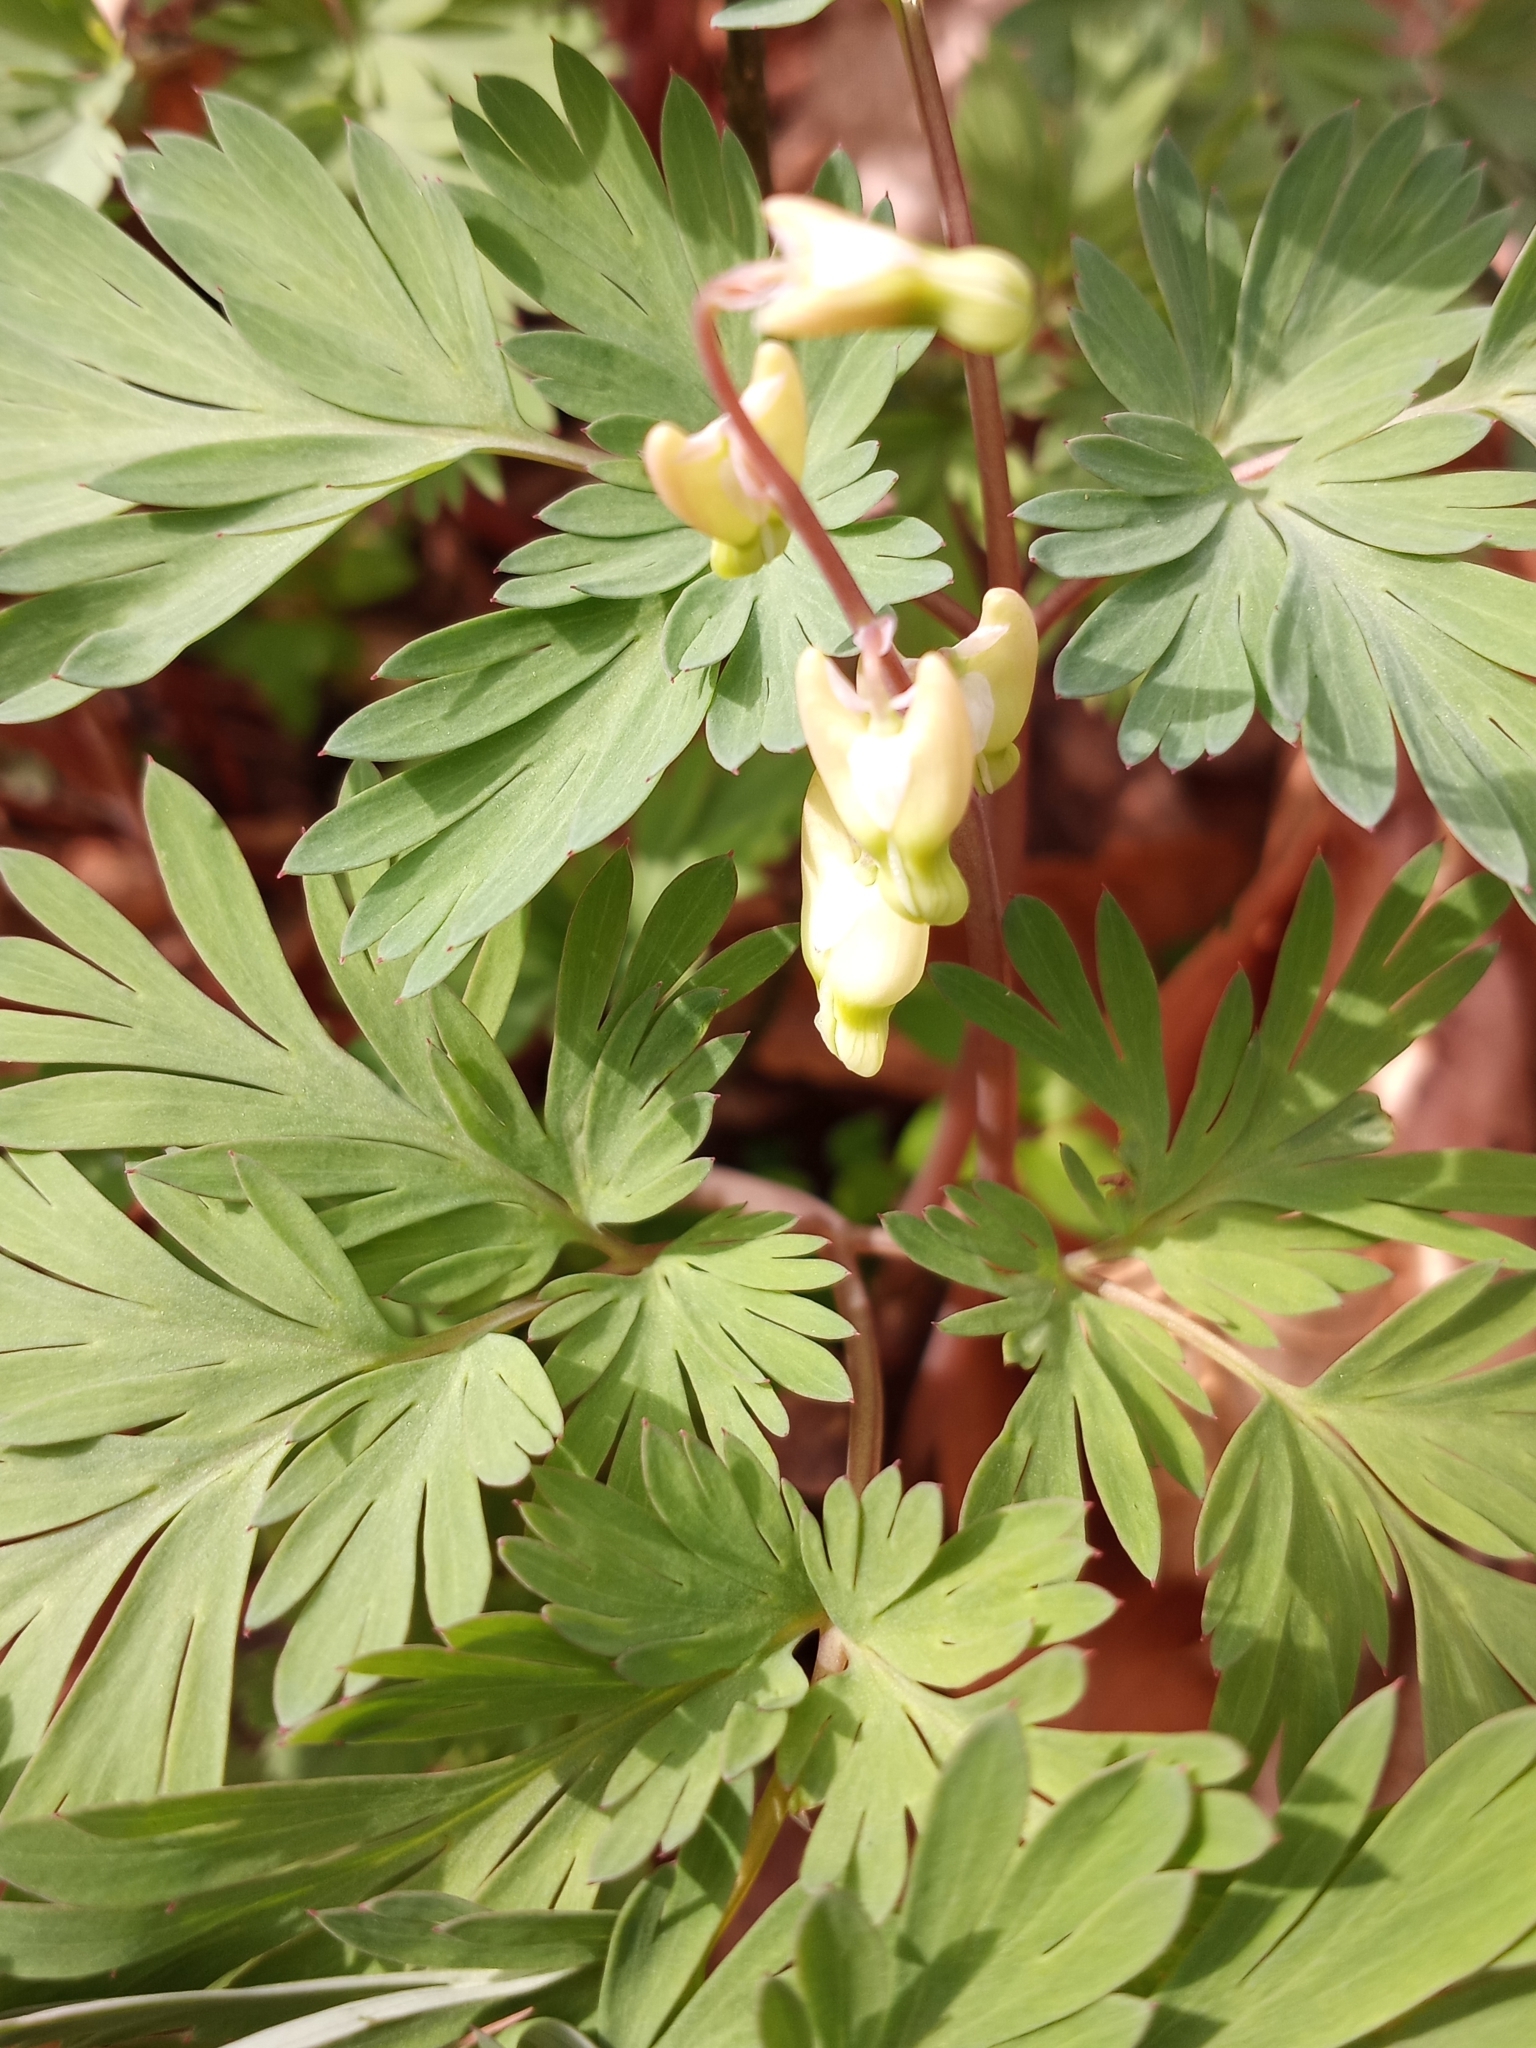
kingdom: Plantae
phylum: Tracheophyta
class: Magnoliopsida
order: Ranunculales
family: Papaveraceae
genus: Dicentra
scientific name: Dicentra cucullaria
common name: Dutchman's breeches
